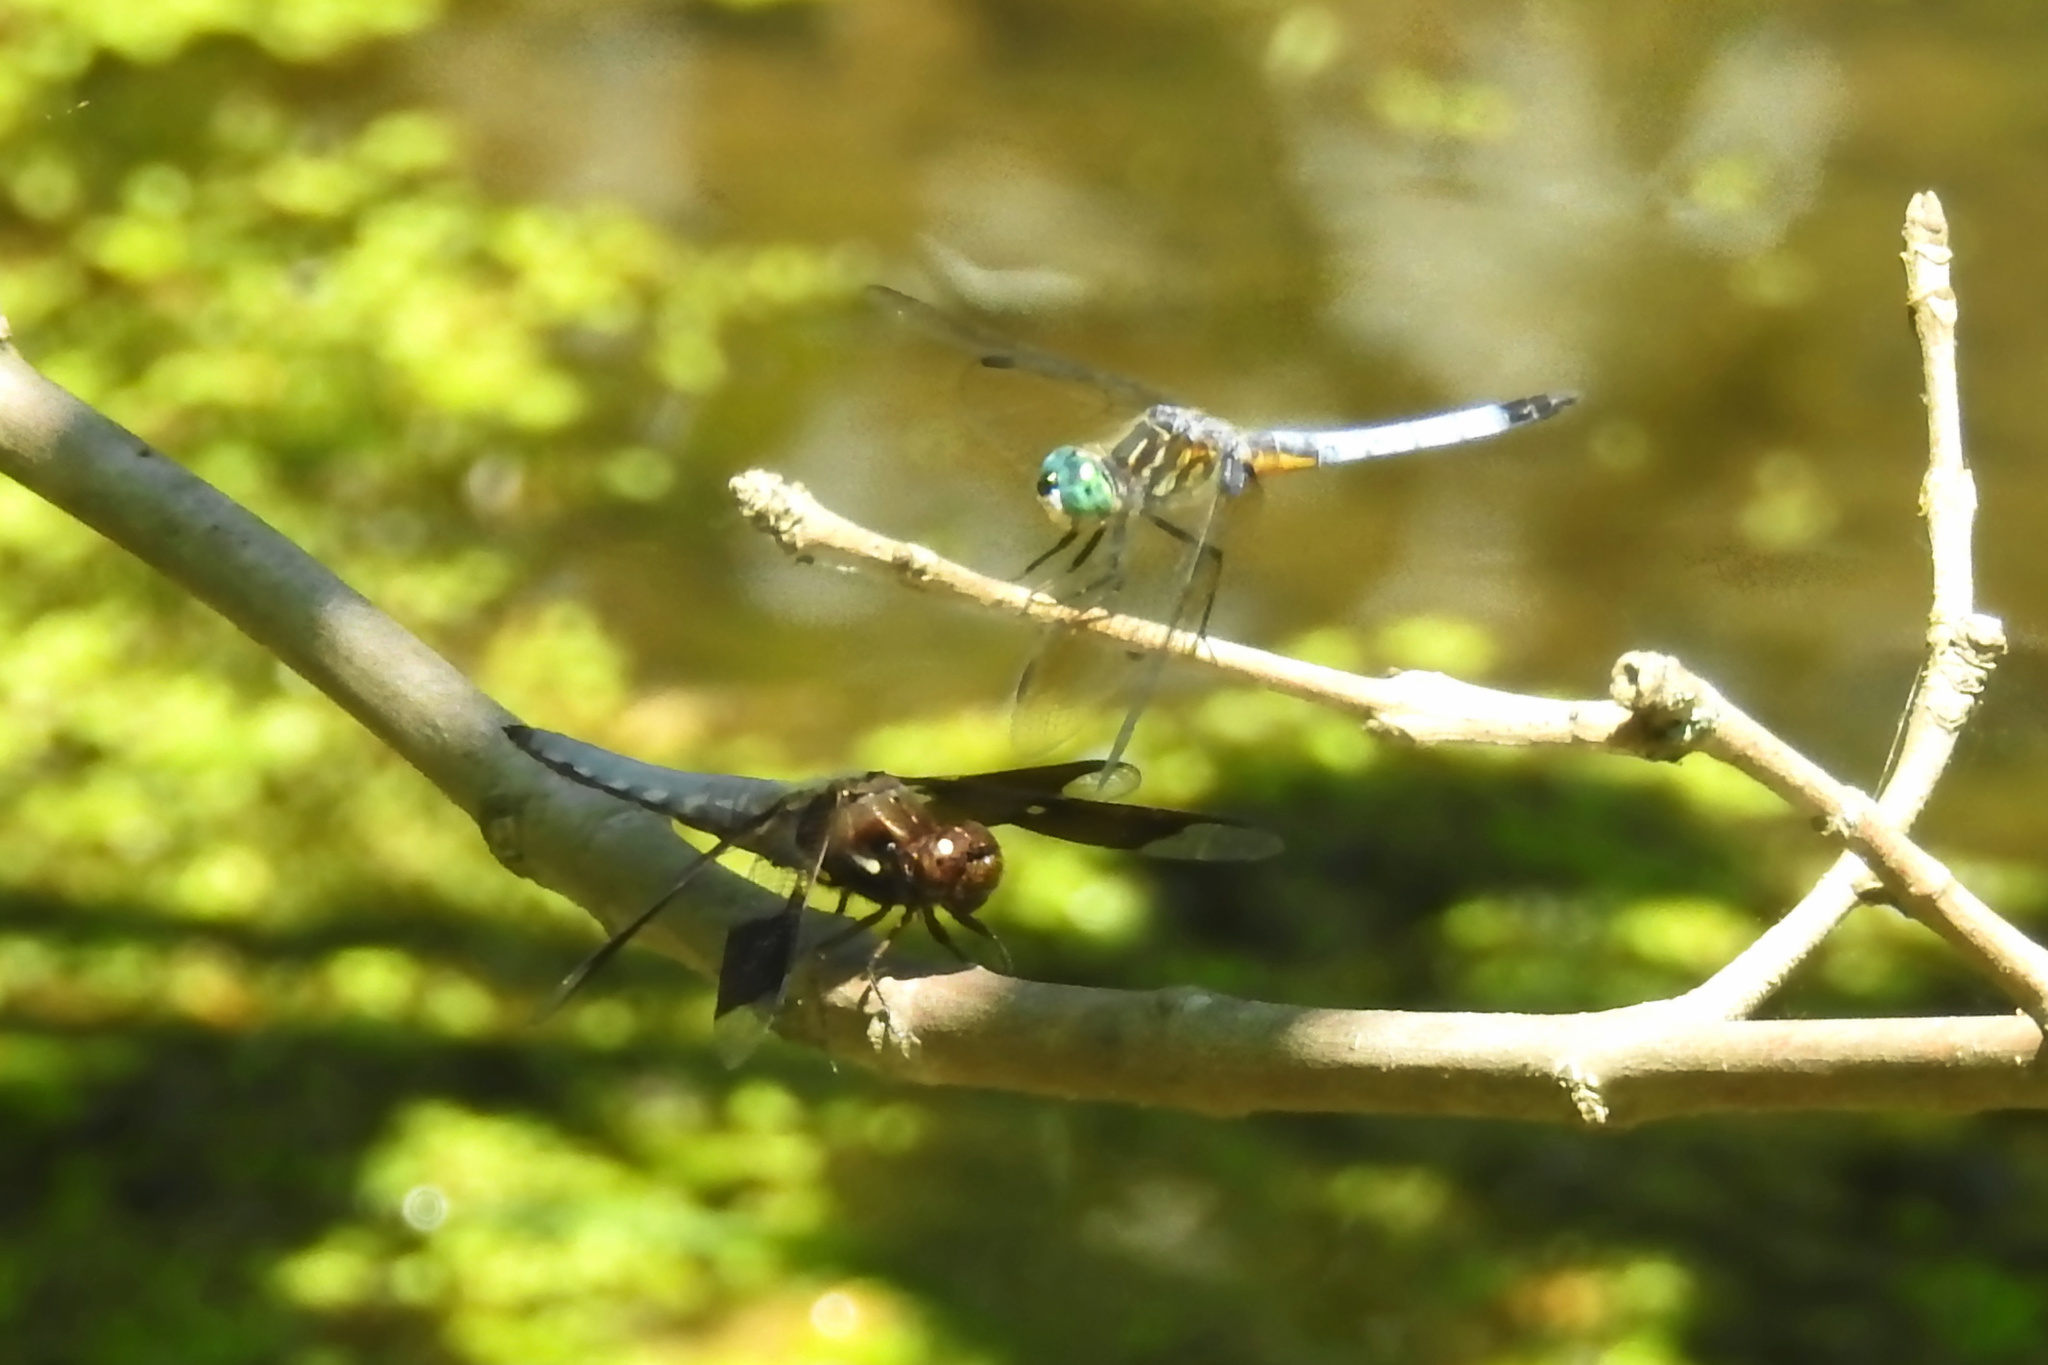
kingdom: Animalia
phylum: Arthropoda
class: Insecta
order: Odonata
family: Libellulidae
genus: Plathemis
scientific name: Plathemis lydia
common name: Common whitetail
